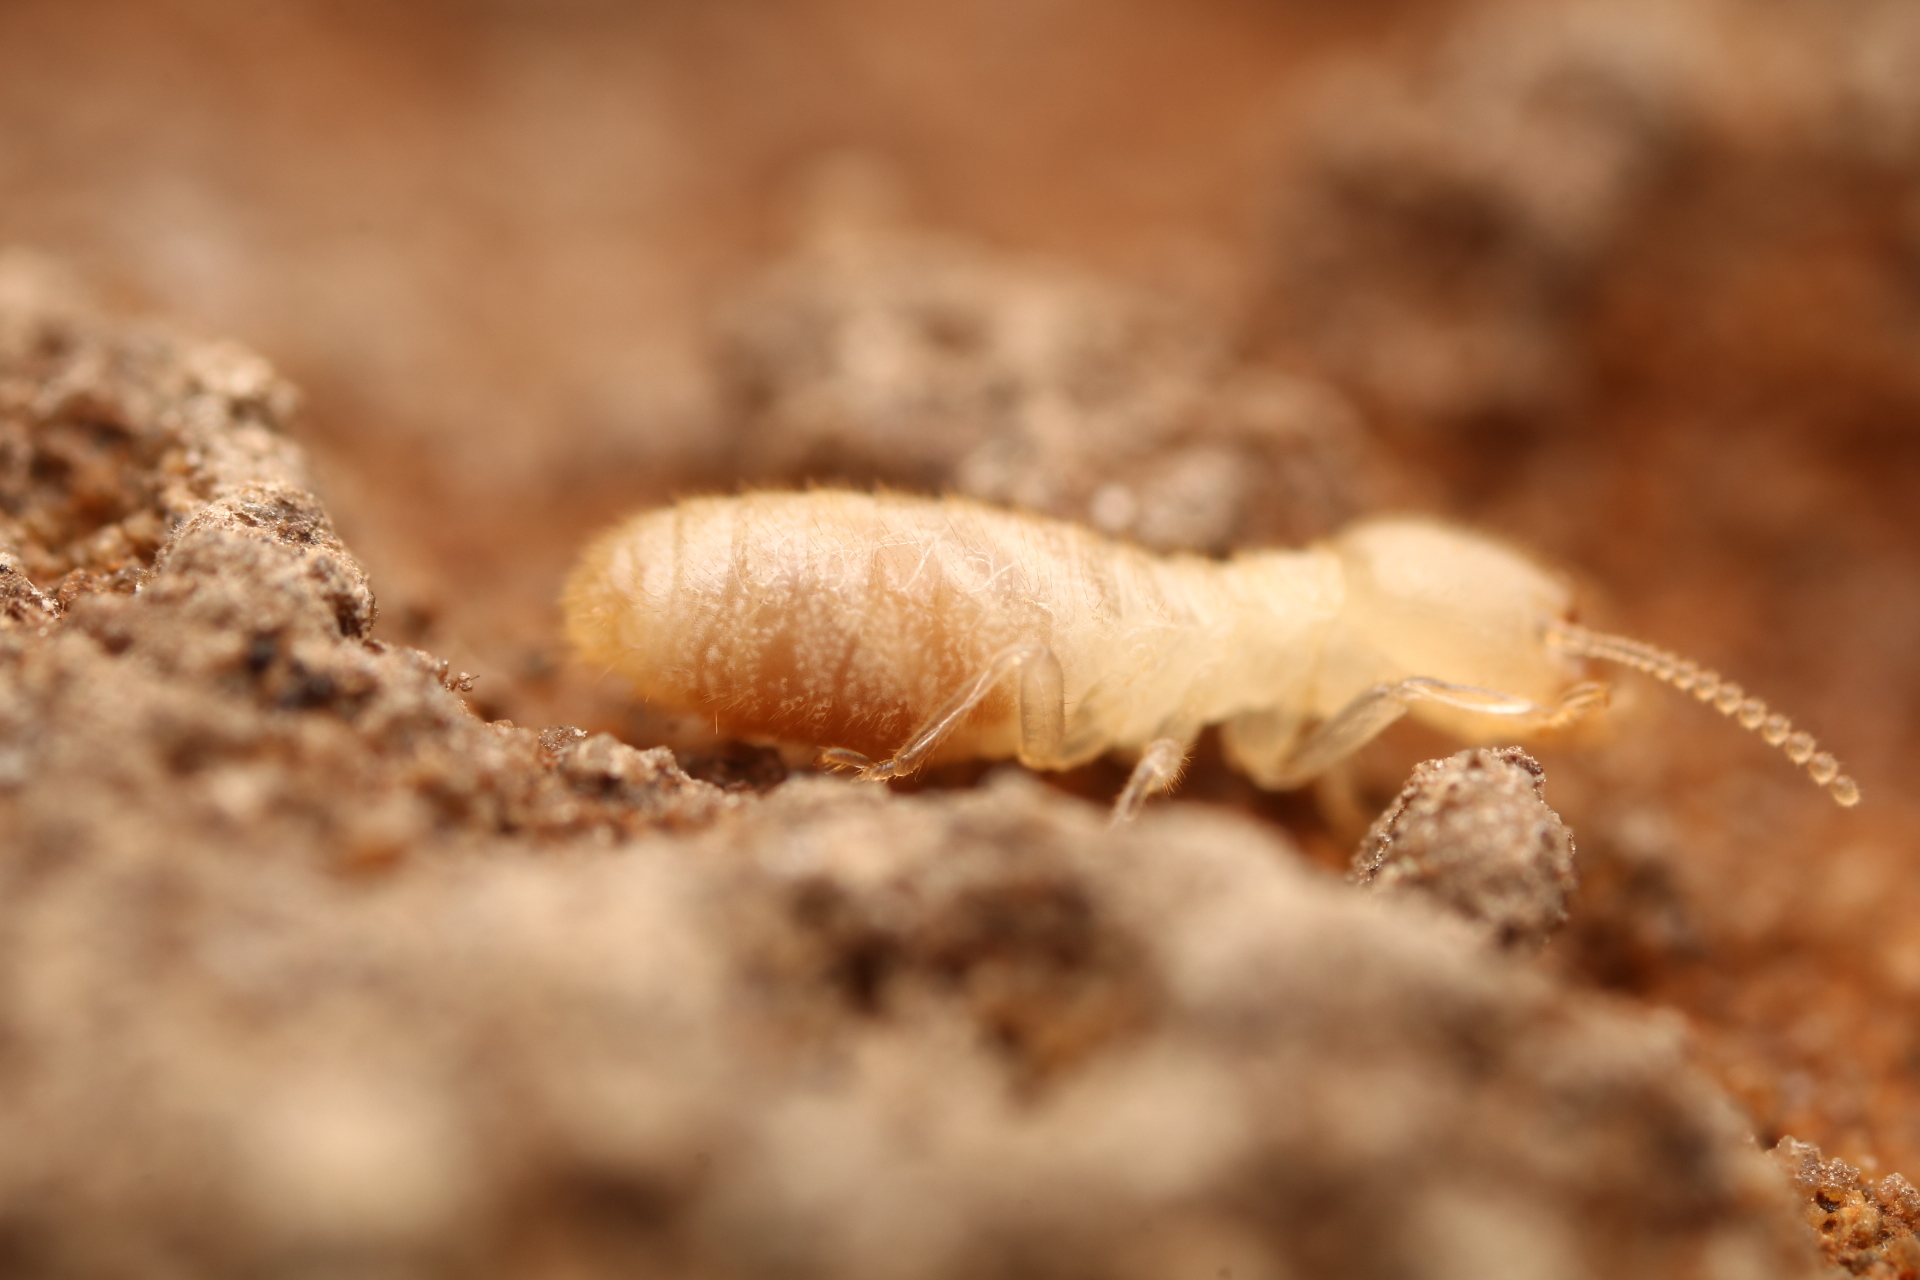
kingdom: Animalia
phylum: Arthropoda
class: Insecta
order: Blattodea
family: Rhinotermitidae
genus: Reticulitermes
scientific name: Reticulitermes flavipes
